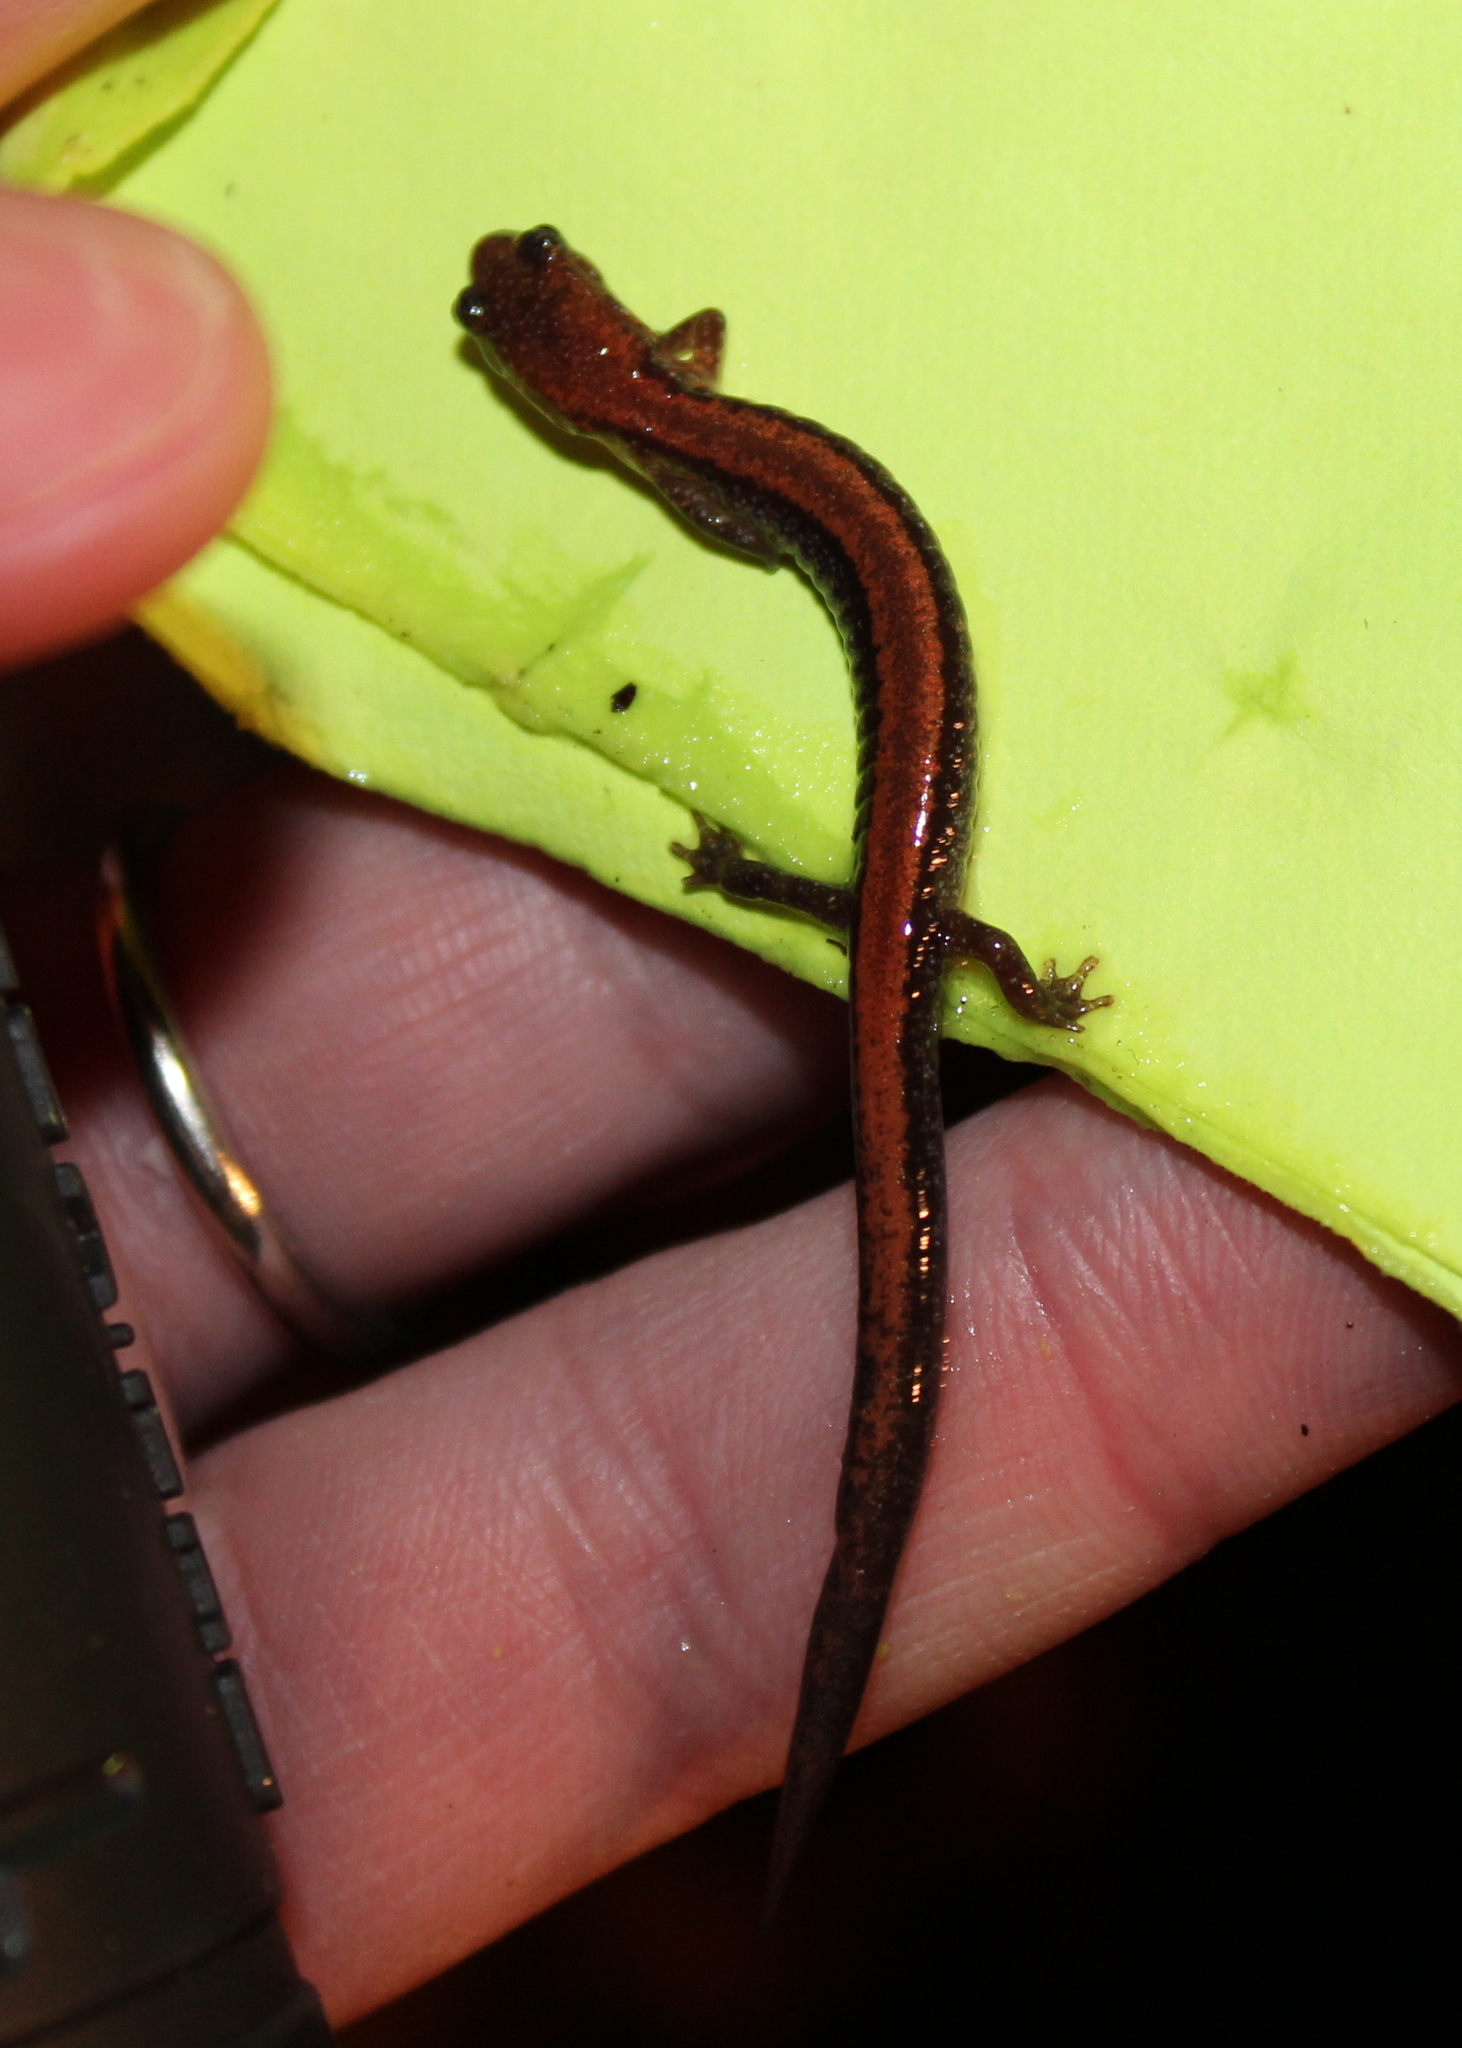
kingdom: Animalia
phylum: Chordata
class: Amphibia
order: Caudata
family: Plethodontidae
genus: Plethodon
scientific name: Plethodon cinereus
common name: Redback salamander
